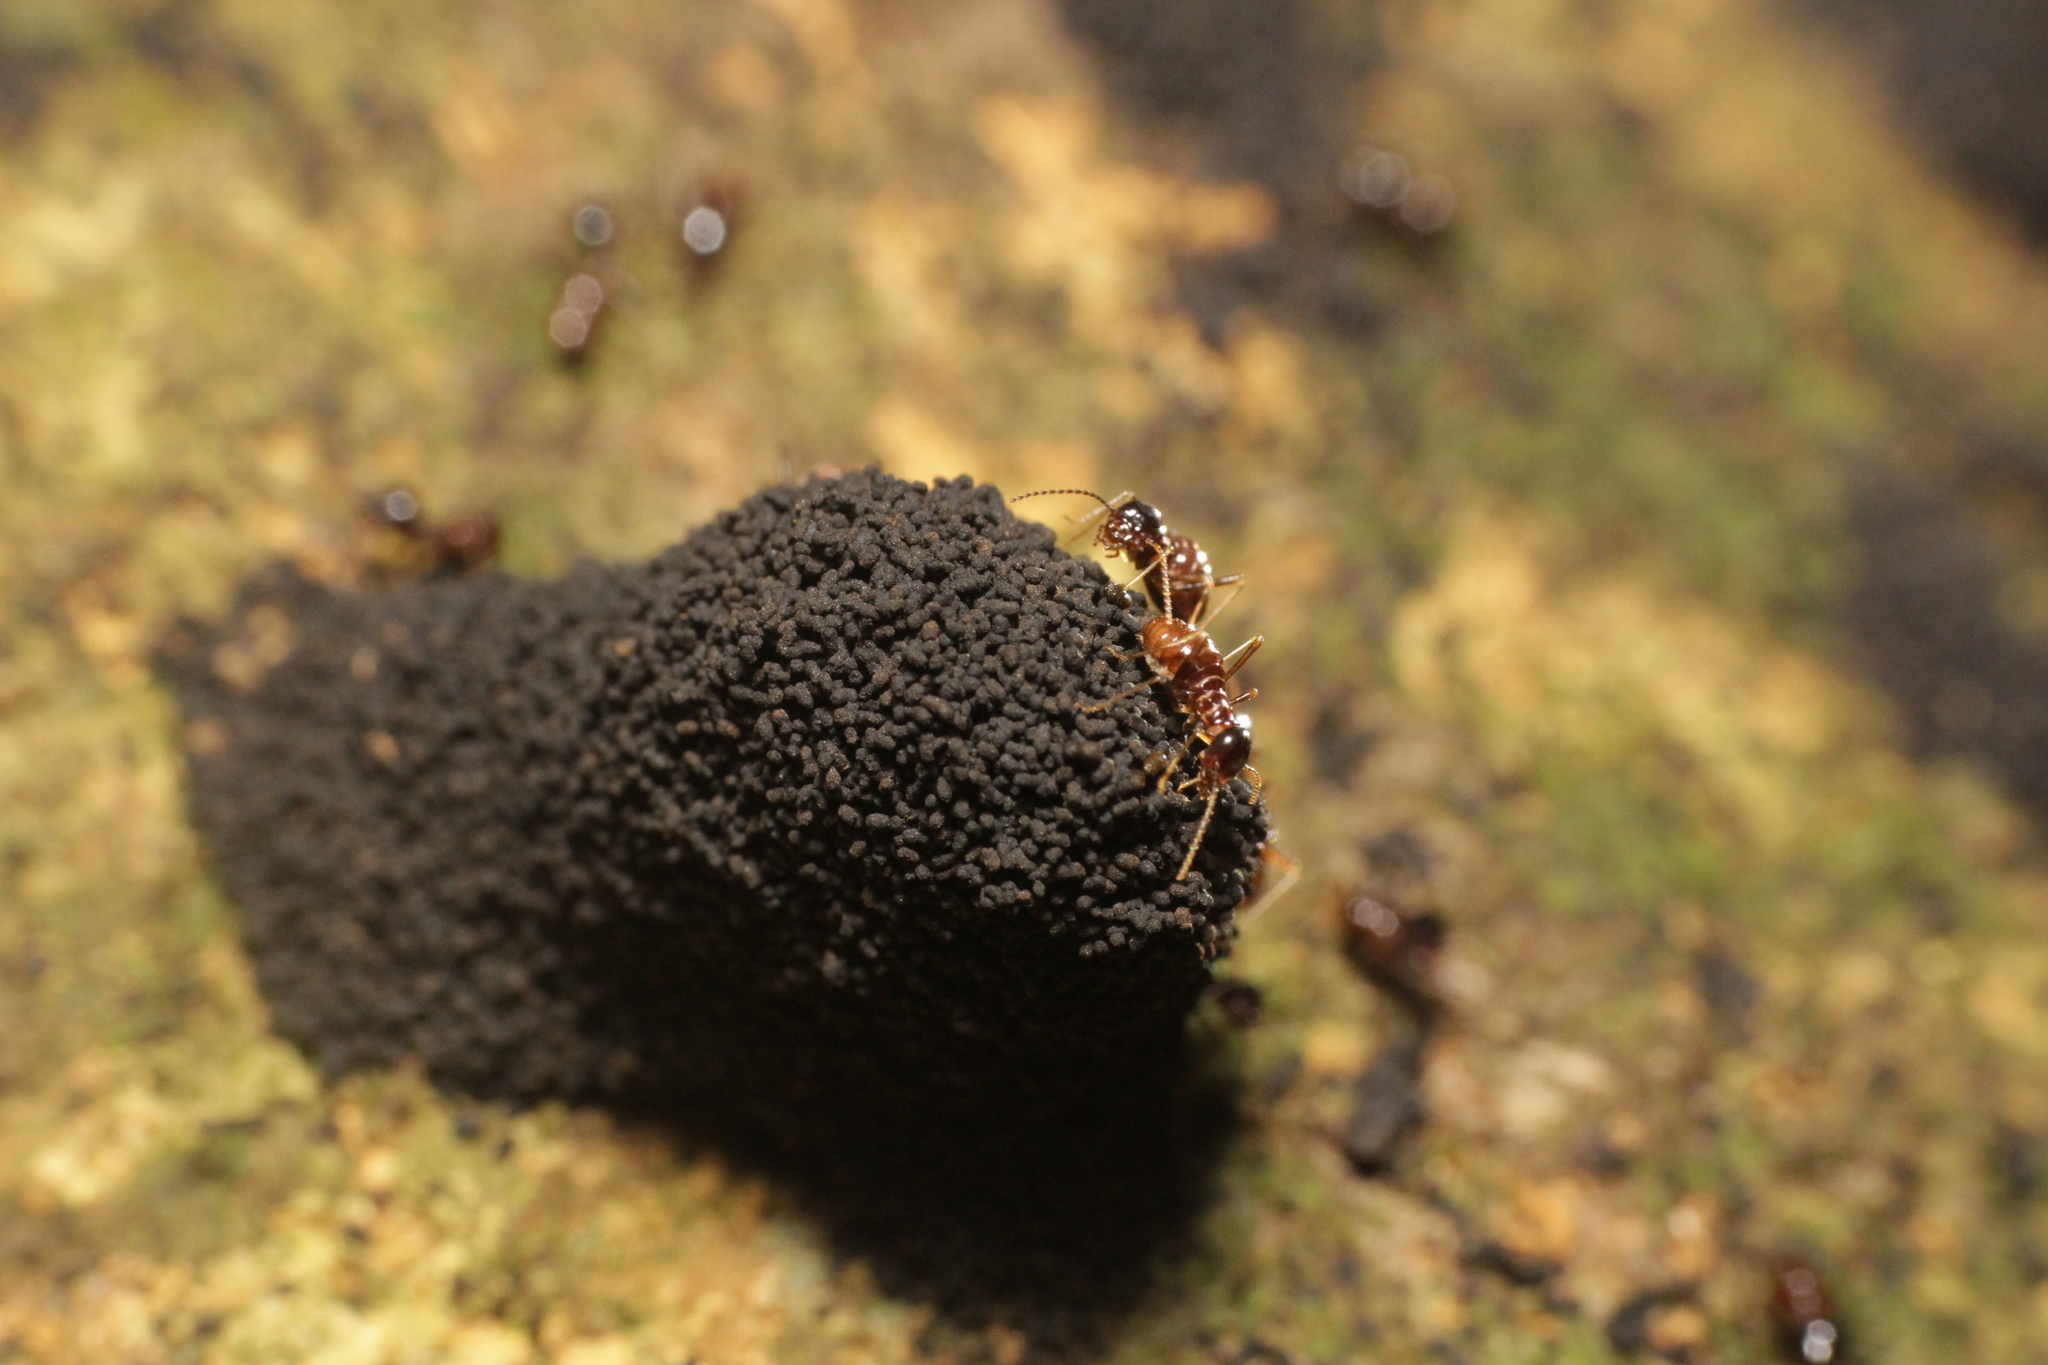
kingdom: Animalia
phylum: Arthropoda
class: Insecta
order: Blattodea
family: Termitidae
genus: Hospitalitermes
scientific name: Hospitalitermes monoceros
